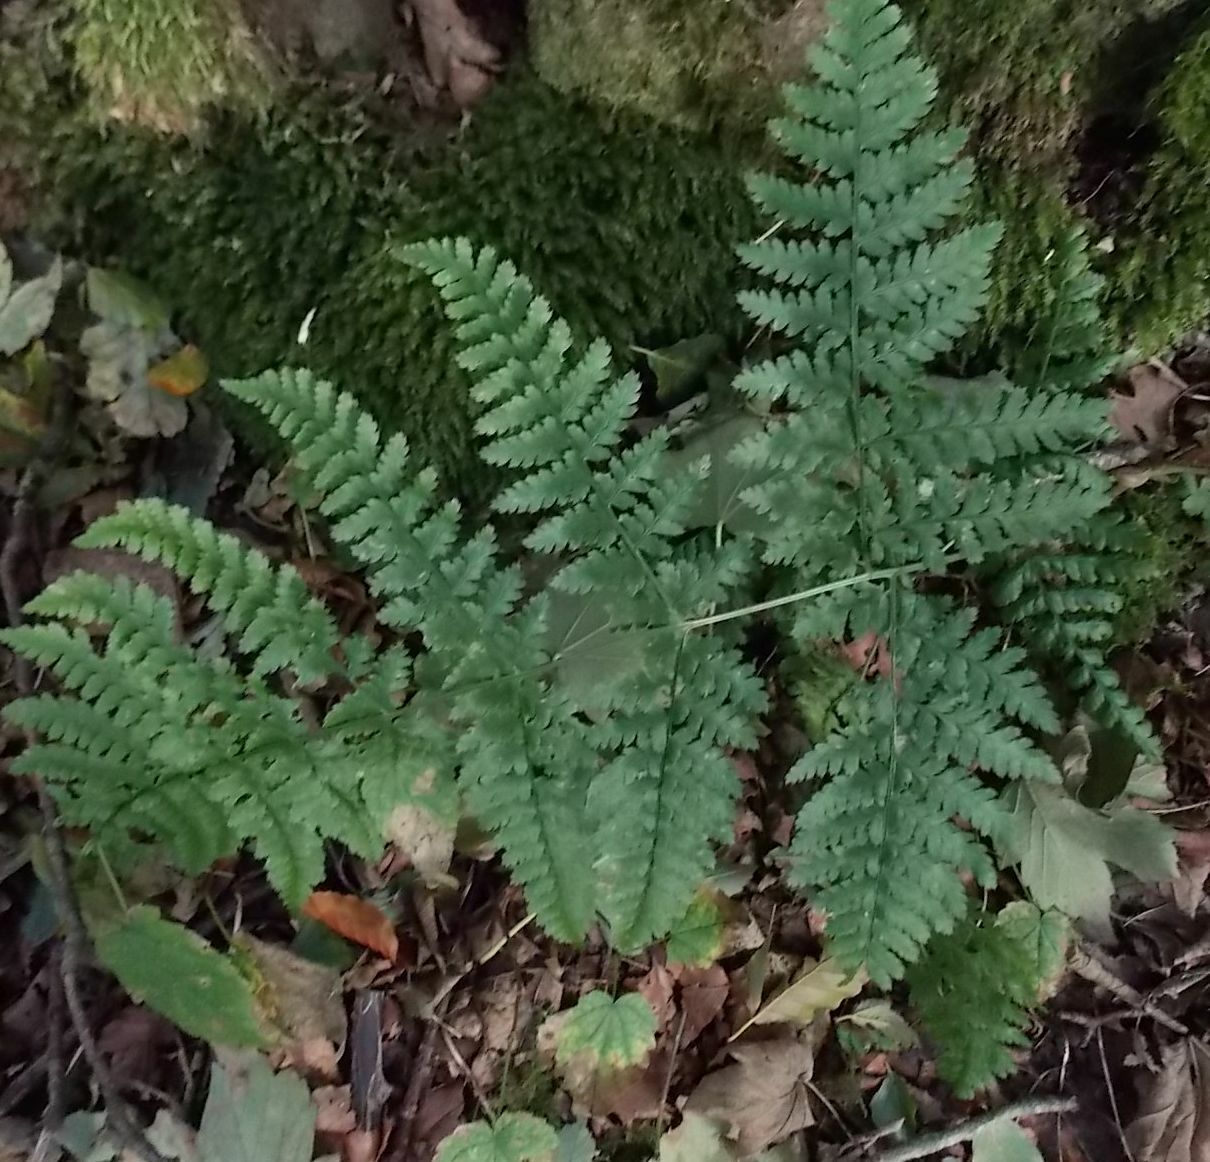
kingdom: Plantae
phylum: Tracheophyta
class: Polypodiopsida
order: Polypodiales
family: Dryopteridaceae
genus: Dryopteris
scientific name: Dryopteris dilatata
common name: Broad buckler-fern
